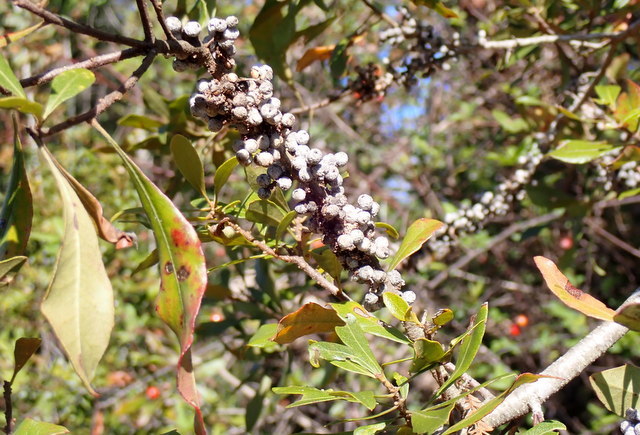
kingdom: Plantae
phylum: Tracheophyta
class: Magnoliopsida
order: Fagales
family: Myricaceae
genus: Morella
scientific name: Morella cerifera
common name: Wax myrtle
